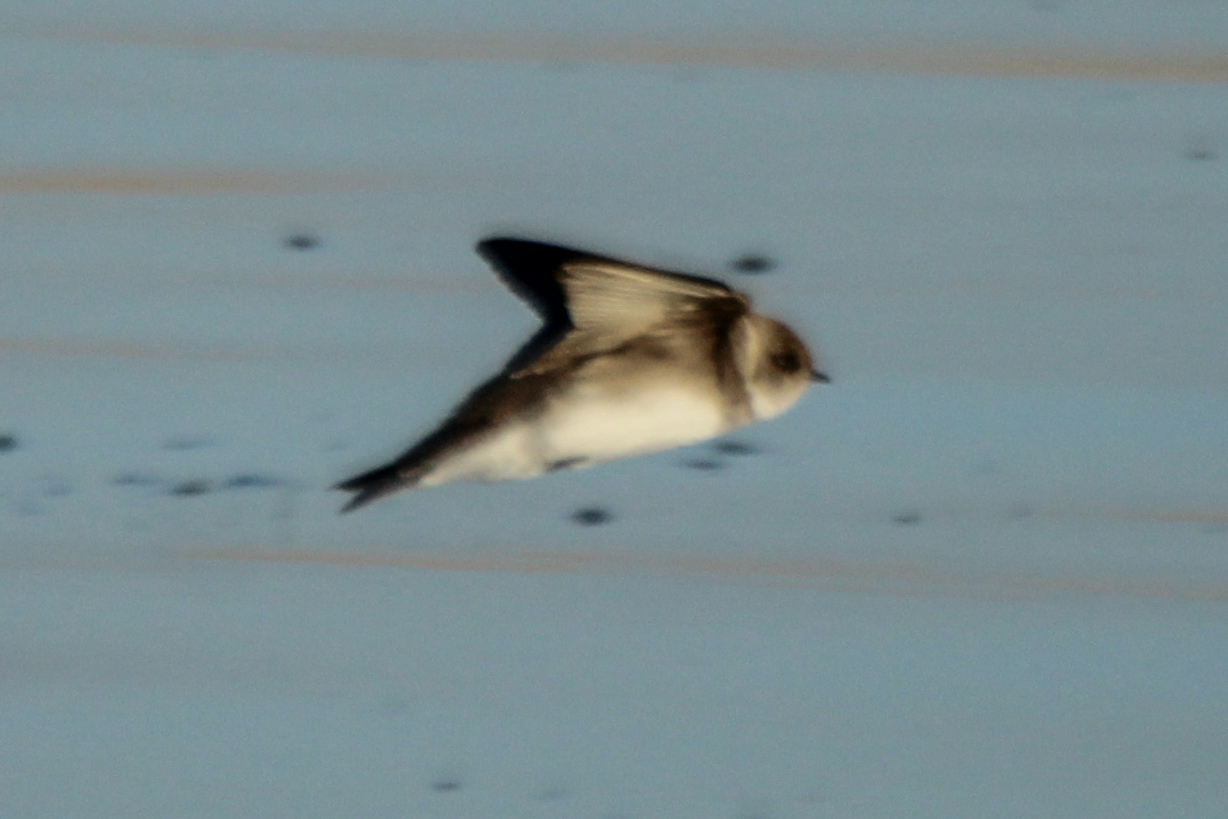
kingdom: Animalia
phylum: Chordata
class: Aves
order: Passeriformes
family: Hirundinidae
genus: Riparia
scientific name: Riparia riparia
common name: Sand martin
